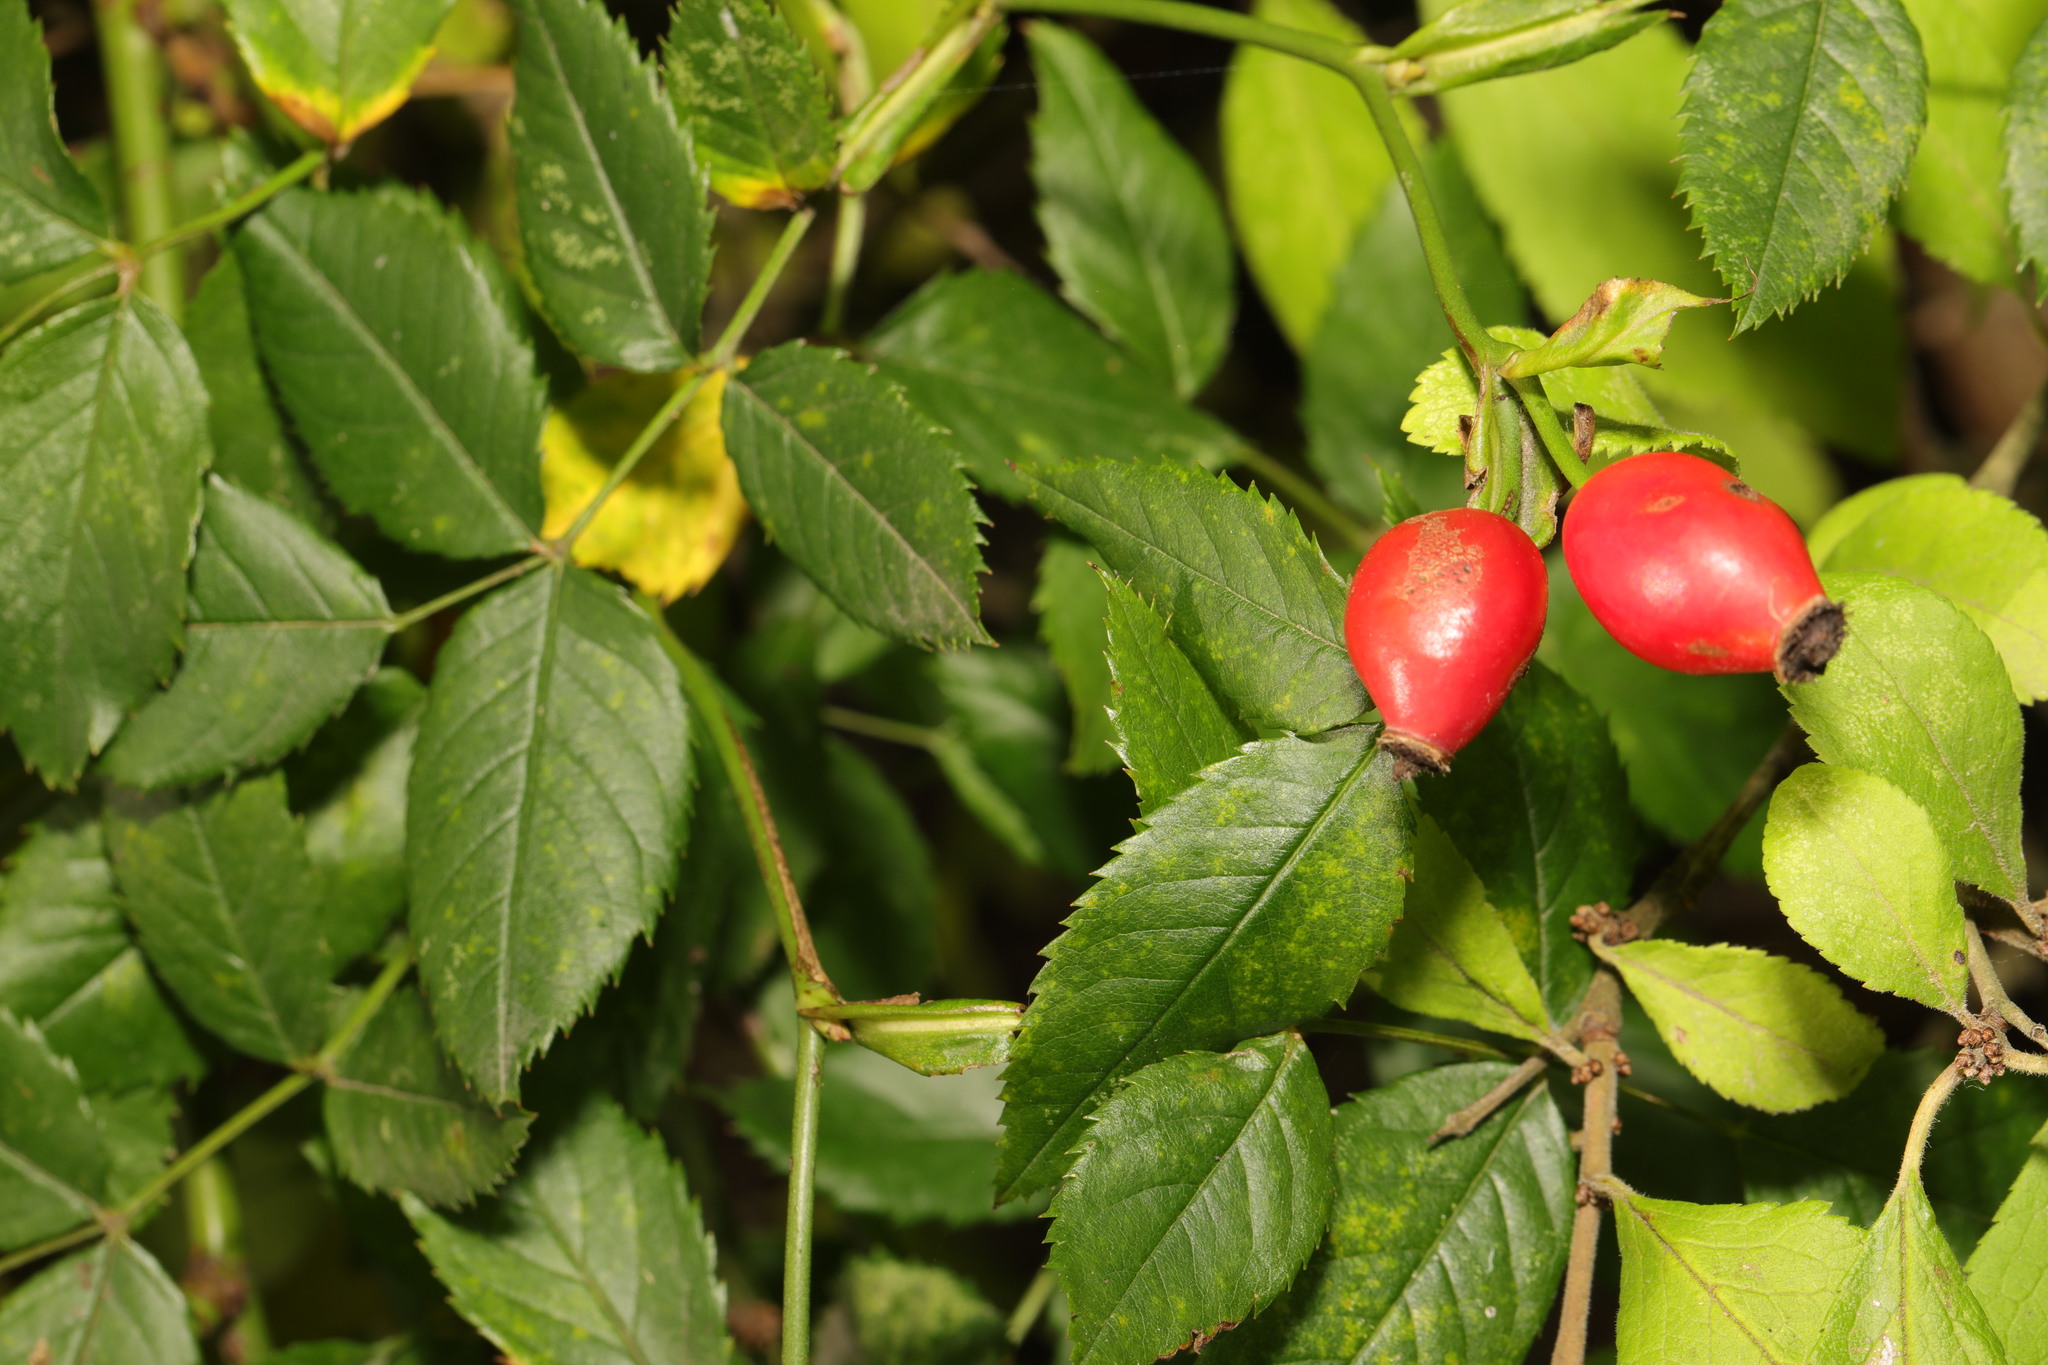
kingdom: Plantae
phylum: Tracheophyta
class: Magnoliopsida
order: Rosales
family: Rosaceae
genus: Rosa
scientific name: Rosa canina
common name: Dog rose
